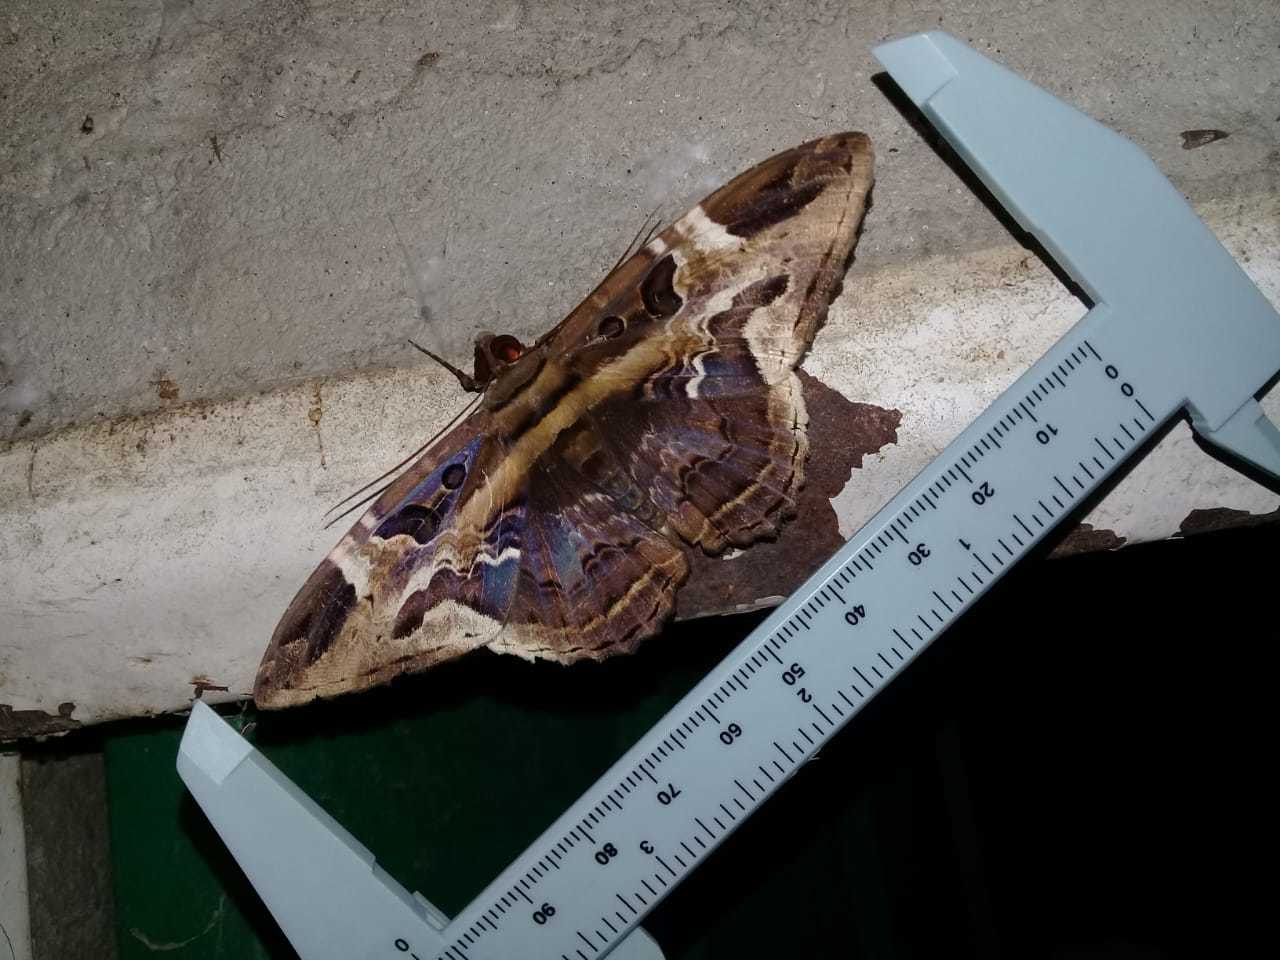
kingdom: Animalia
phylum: Arthropoda
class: Insecta
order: Lepidoptera
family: Erebidae
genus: Feigeria
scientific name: Feigeria herilia
